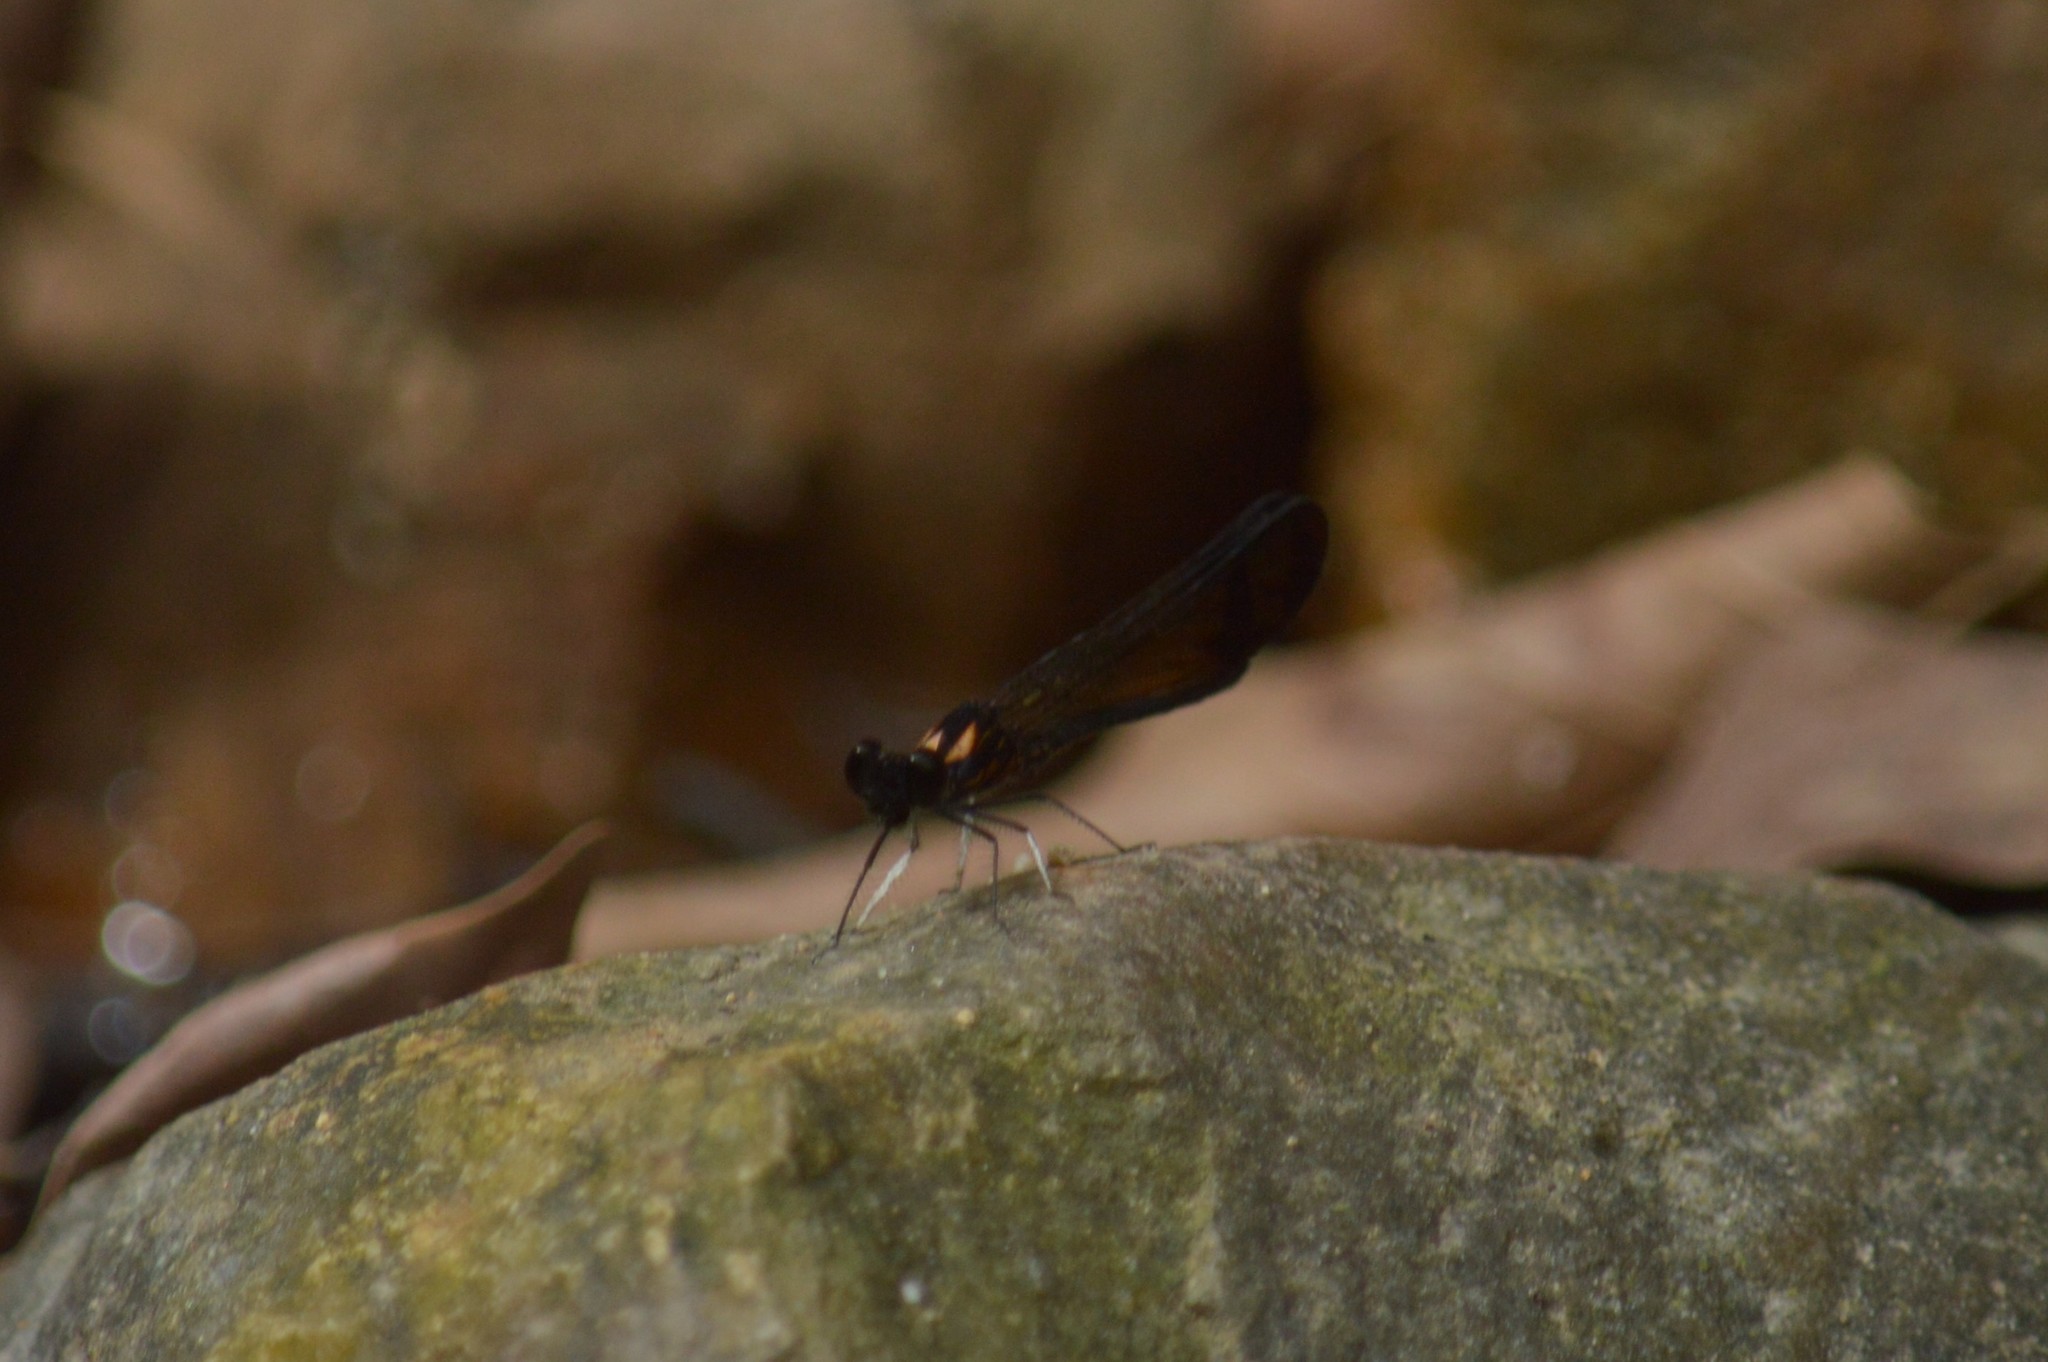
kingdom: Animalia
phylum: Arthropoda
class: Insecta
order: Odonata
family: Chlorocyphidae
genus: Heliocypha
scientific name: Heliocypha bisignata
